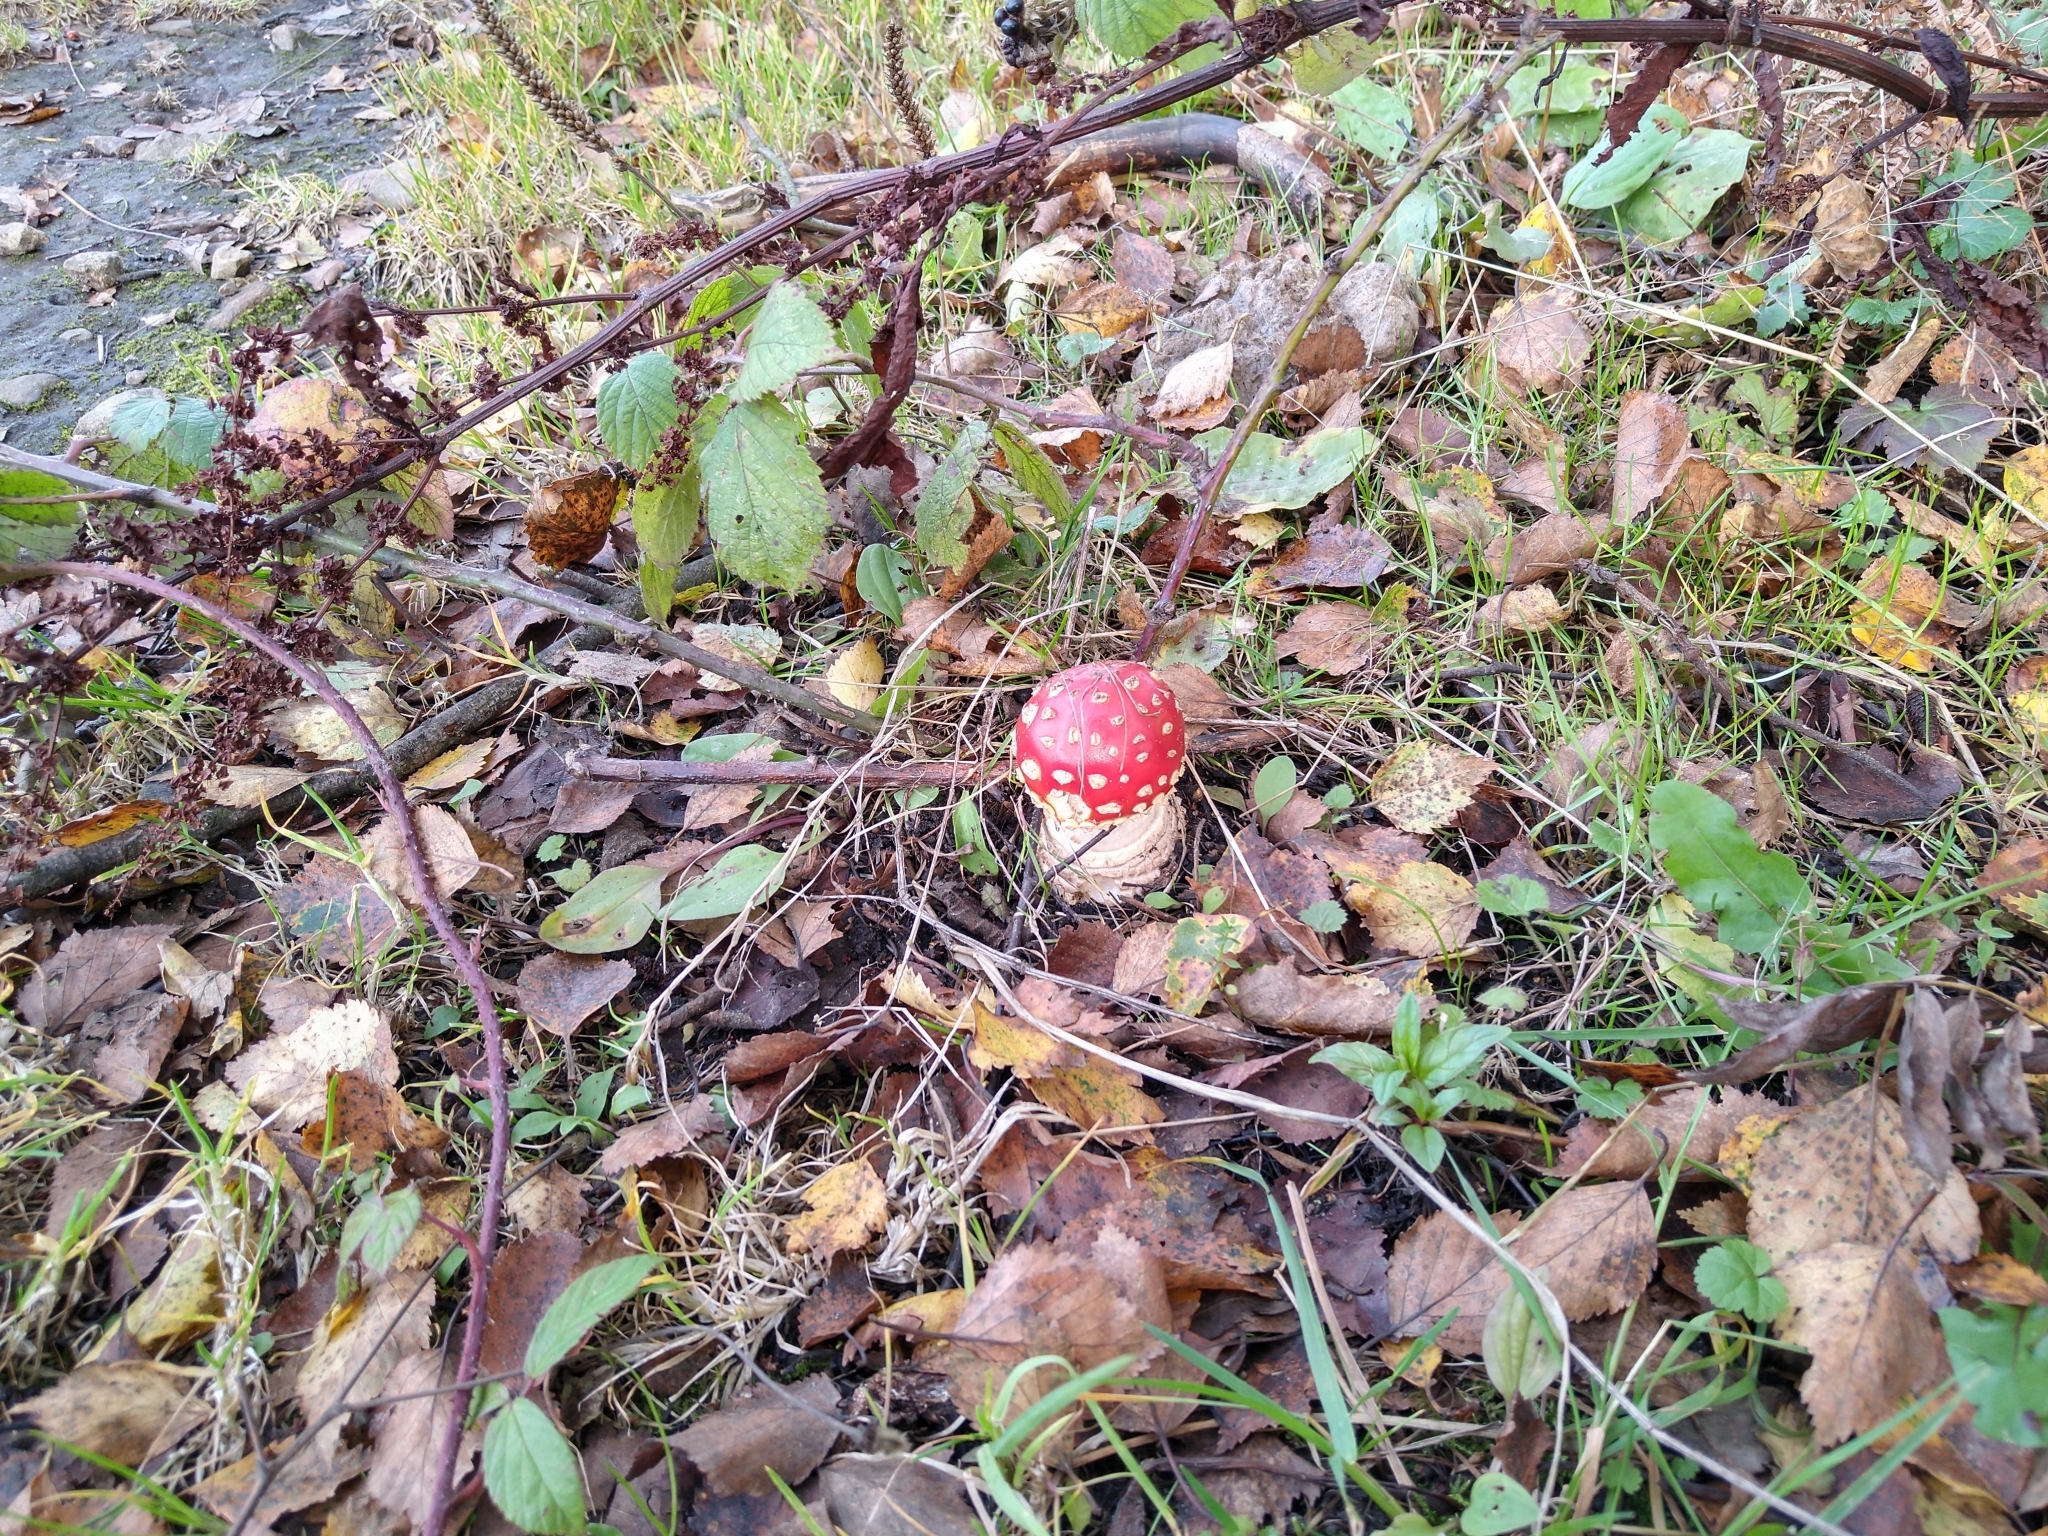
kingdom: Fungi
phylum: Basidiomycota
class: Agaricomycetes
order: Agaricales
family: Amanitaceae
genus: Amanita
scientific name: Amanita muscaria
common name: Fly agaric
